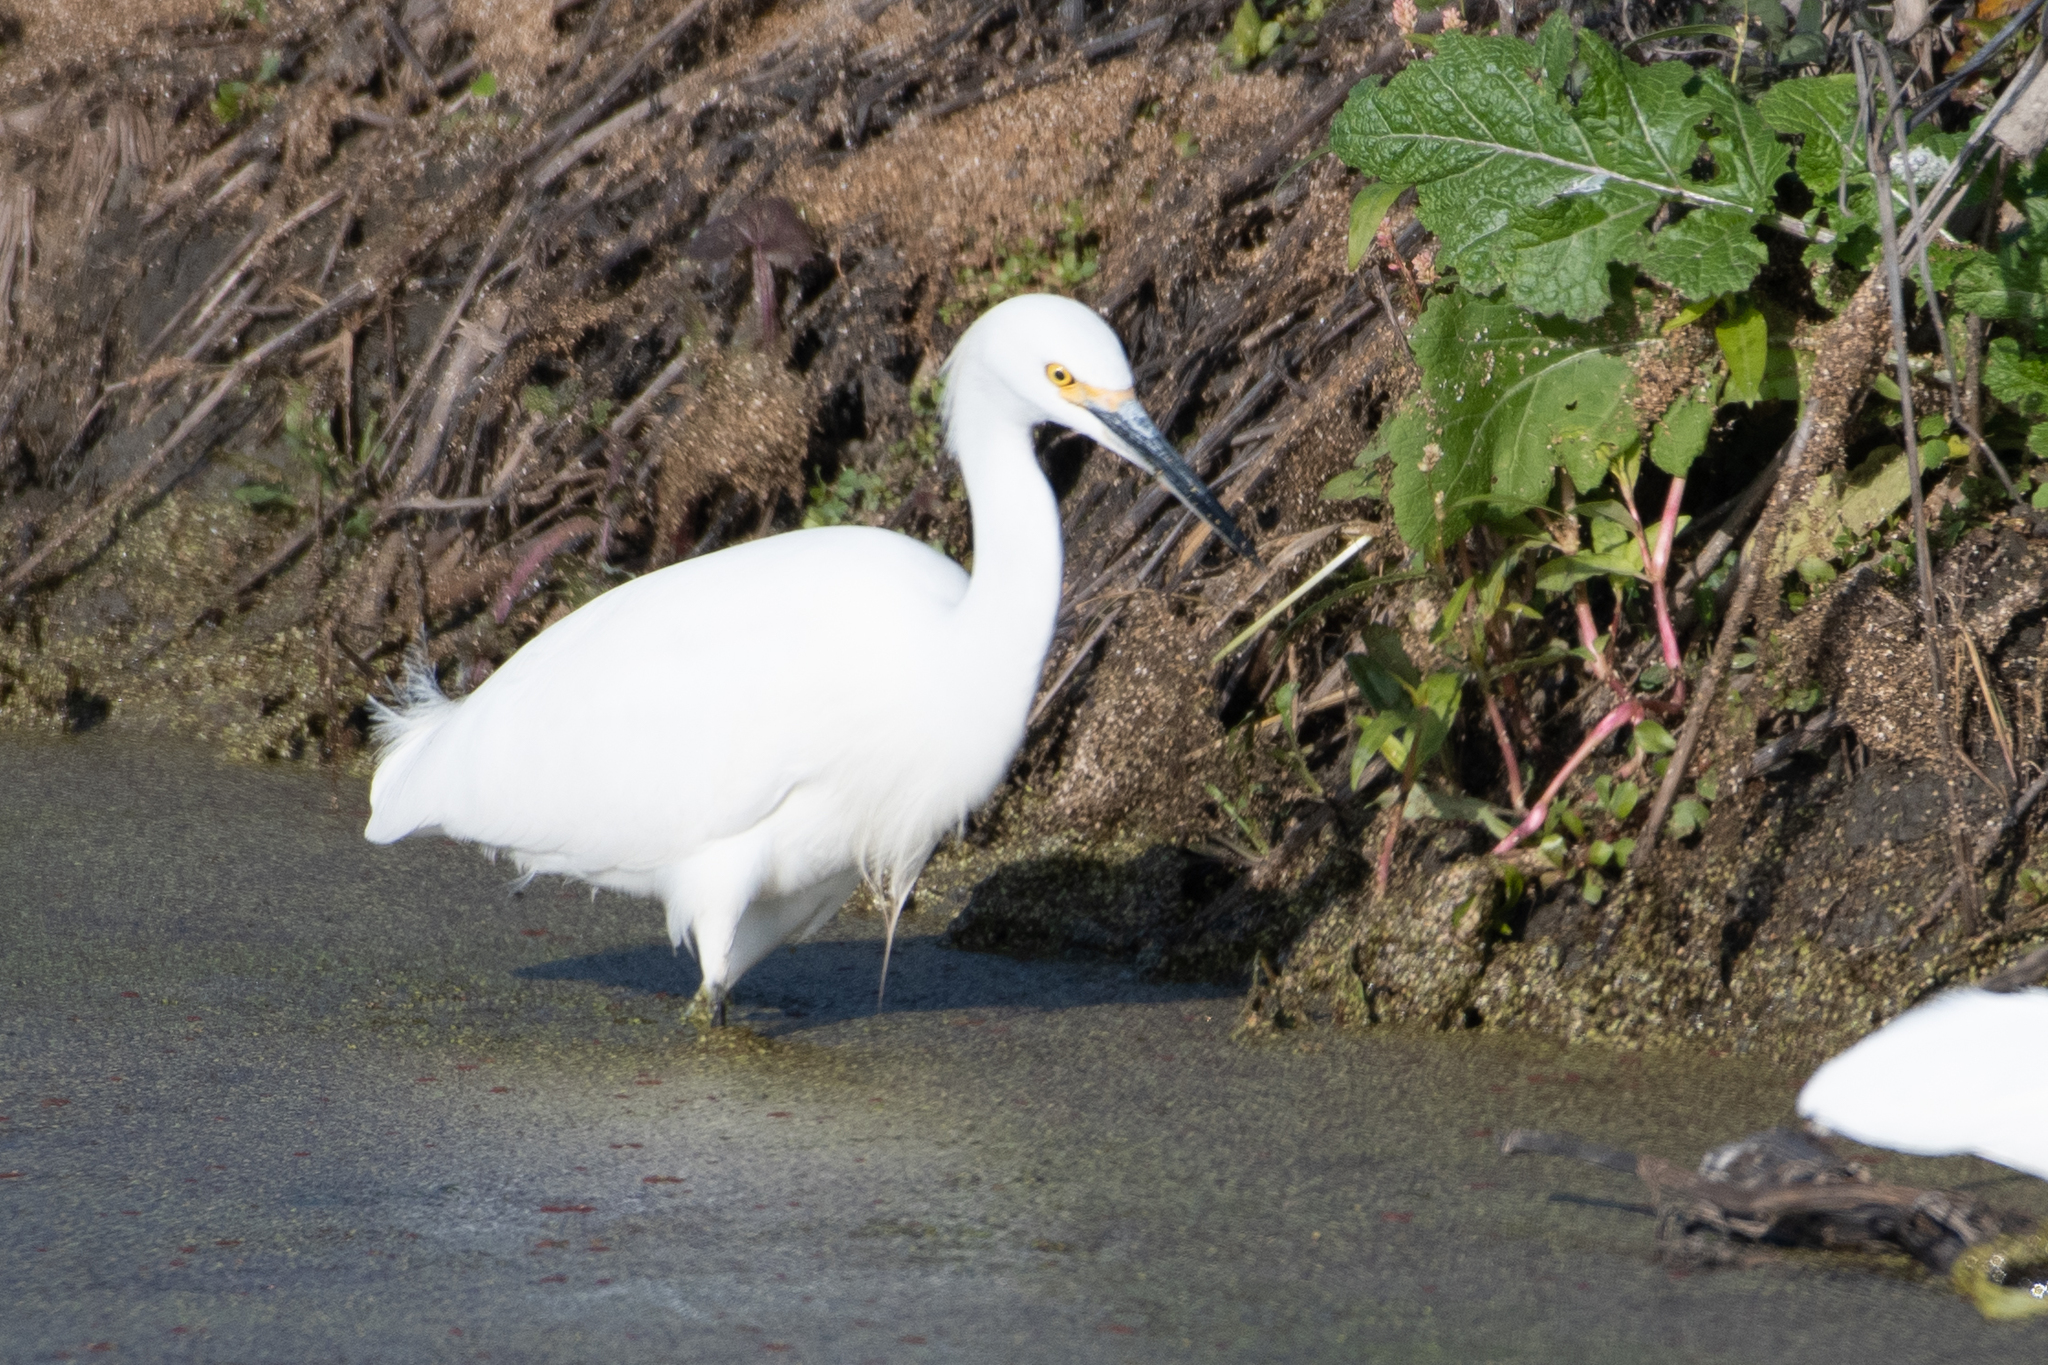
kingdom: Animalia
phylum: Chordata
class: Aves
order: Pelecaniformes
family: Ardeidae
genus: Egretta
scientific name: Egretta thula
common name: Snowy egret
